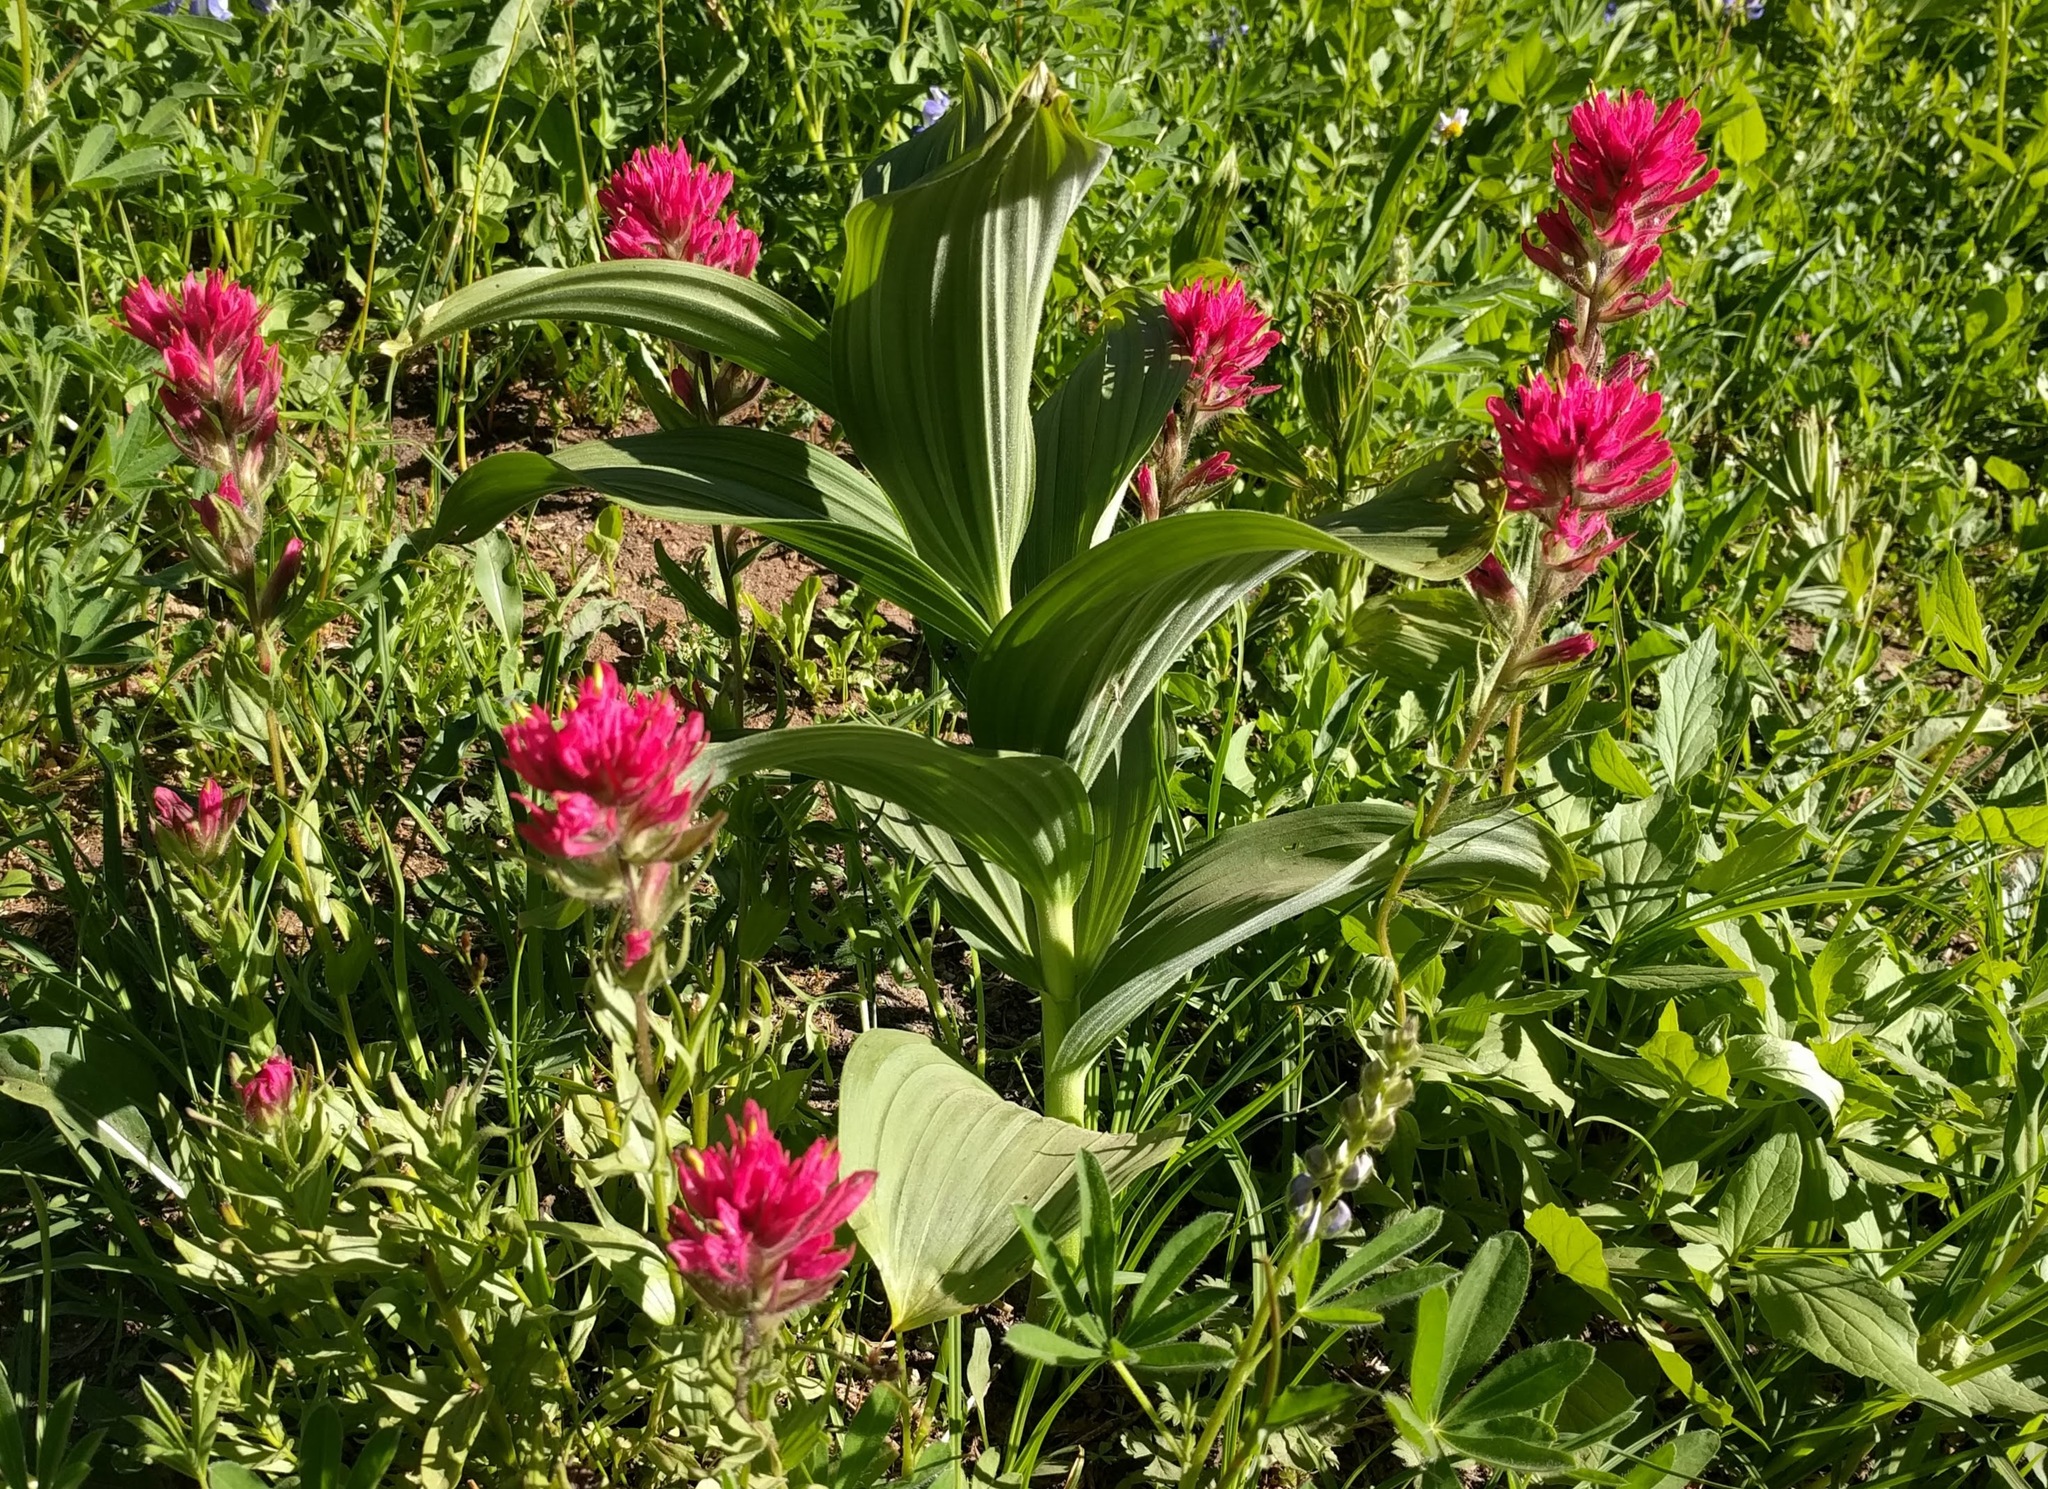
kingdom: Plantae
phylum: Tracheophyta
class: Liliopsida
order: Liliales
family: Melanthiaceae
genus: Veratrum
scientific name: Veratrum viride
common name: American false hellebore
